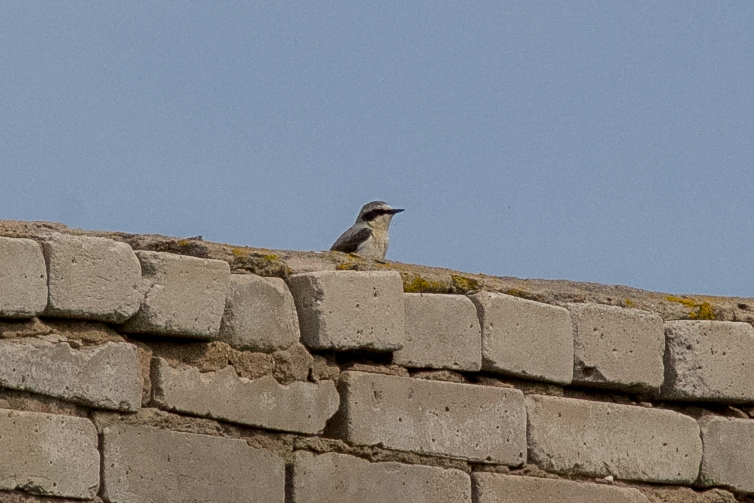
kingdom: Animalia
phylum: Chordata
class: Aves
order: Passeriformes
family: Muscicapidae
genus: Oenanthe
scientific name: Oenanthe oenanthe
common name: Northern wheatear
